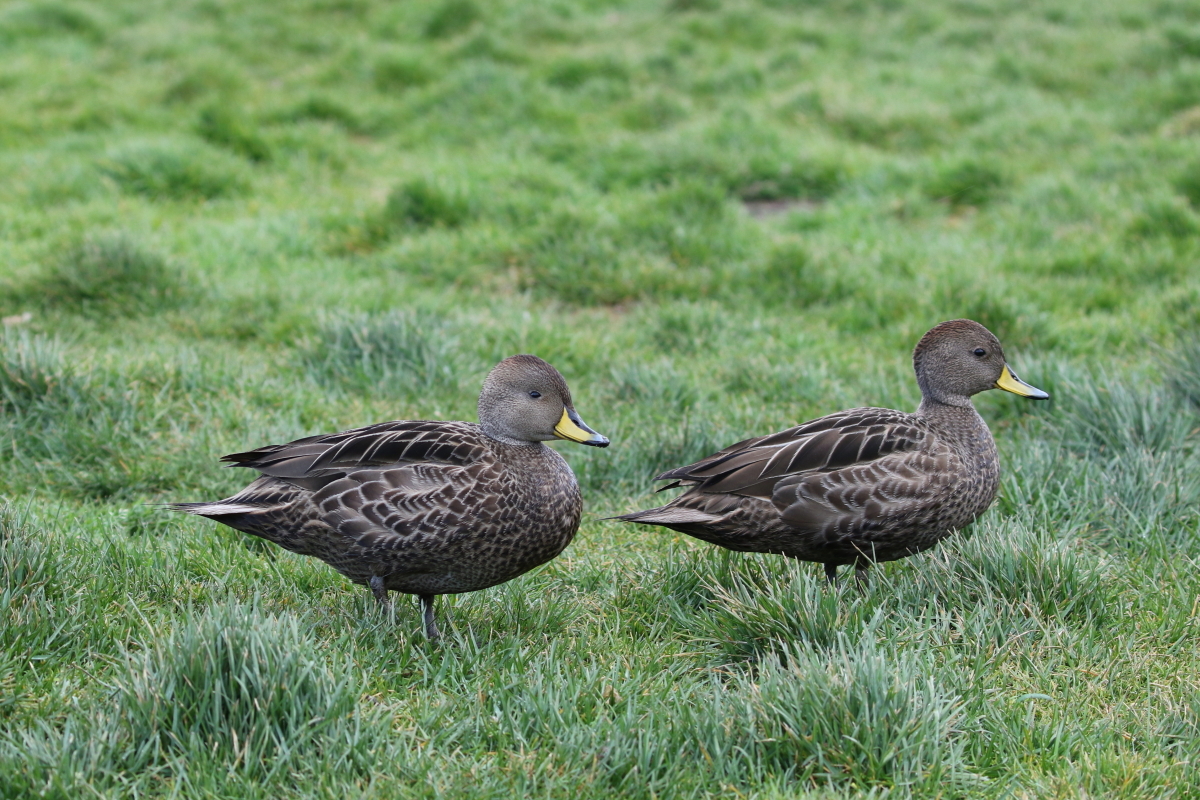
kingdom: Animalia
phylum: Chordata
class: Aves
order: Anseriformes
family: Anatidae
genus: Anas
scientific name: Anas georgica
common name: Yellow-billed pintail
